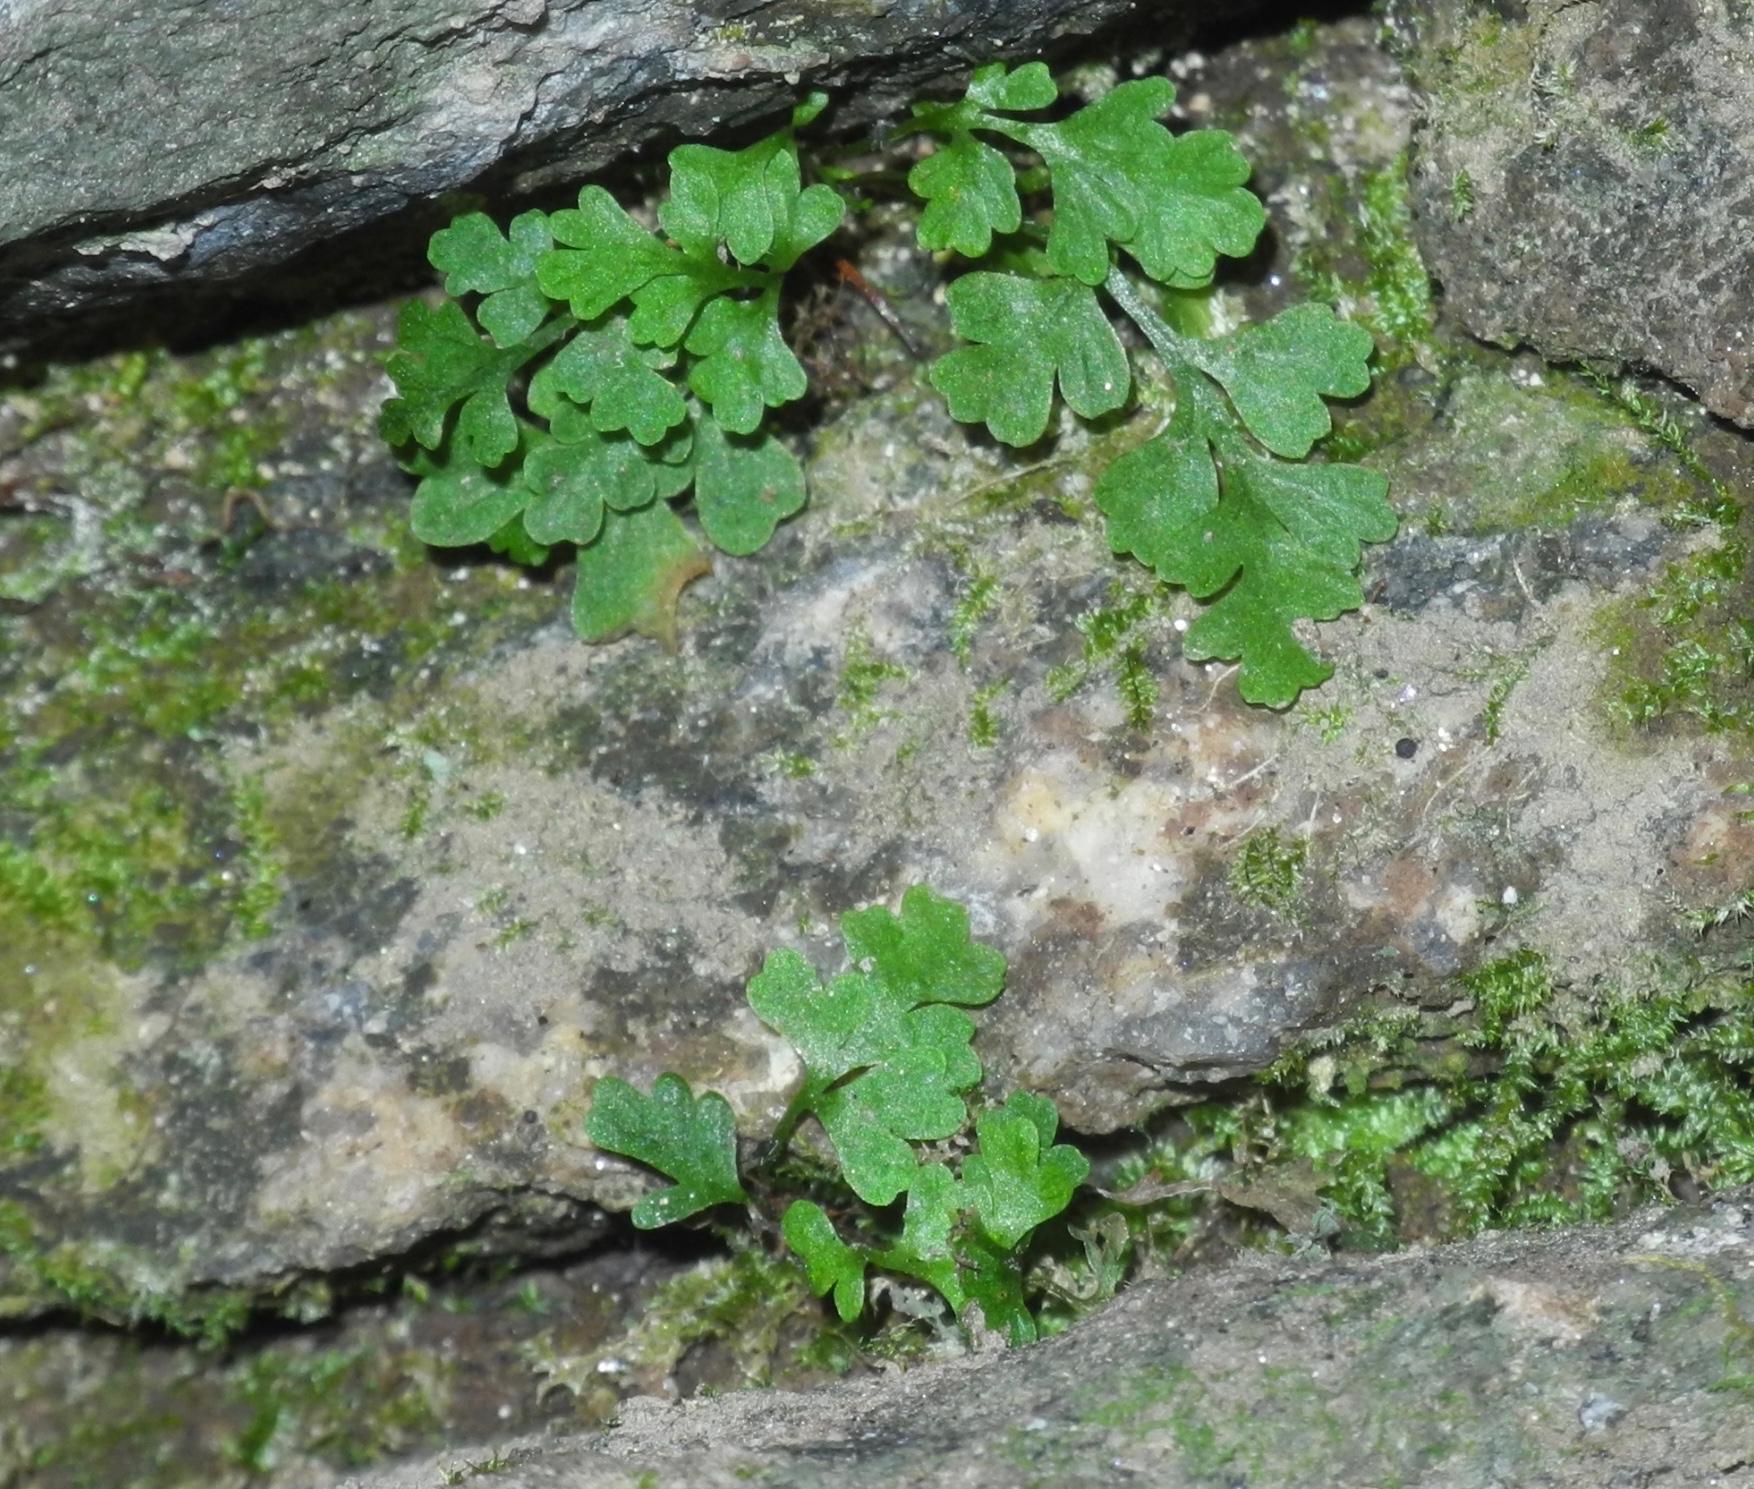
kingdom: Plantae
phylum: Tracheophyta
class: Polypodiopsida
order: Hymenophyllales
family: Hymenophyllaceae
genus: Vandenboschia
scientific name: Vandenboschia boschiana
